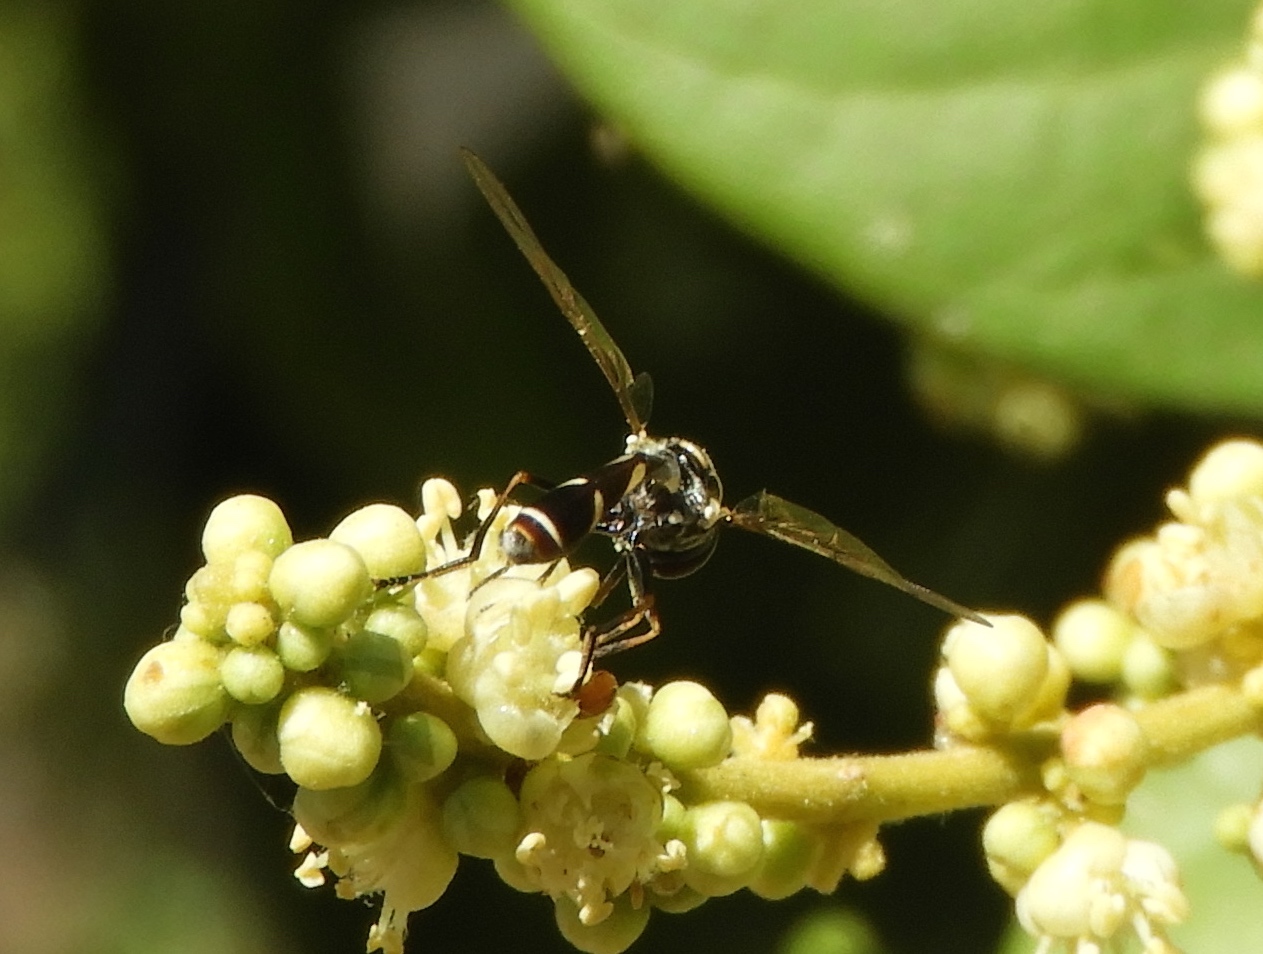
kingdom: Animalia
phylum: Arthropoda
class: Insecta
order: Diptera
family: Syrphidae
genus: Dioprosopa
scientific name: Dioprosopa clavatus
